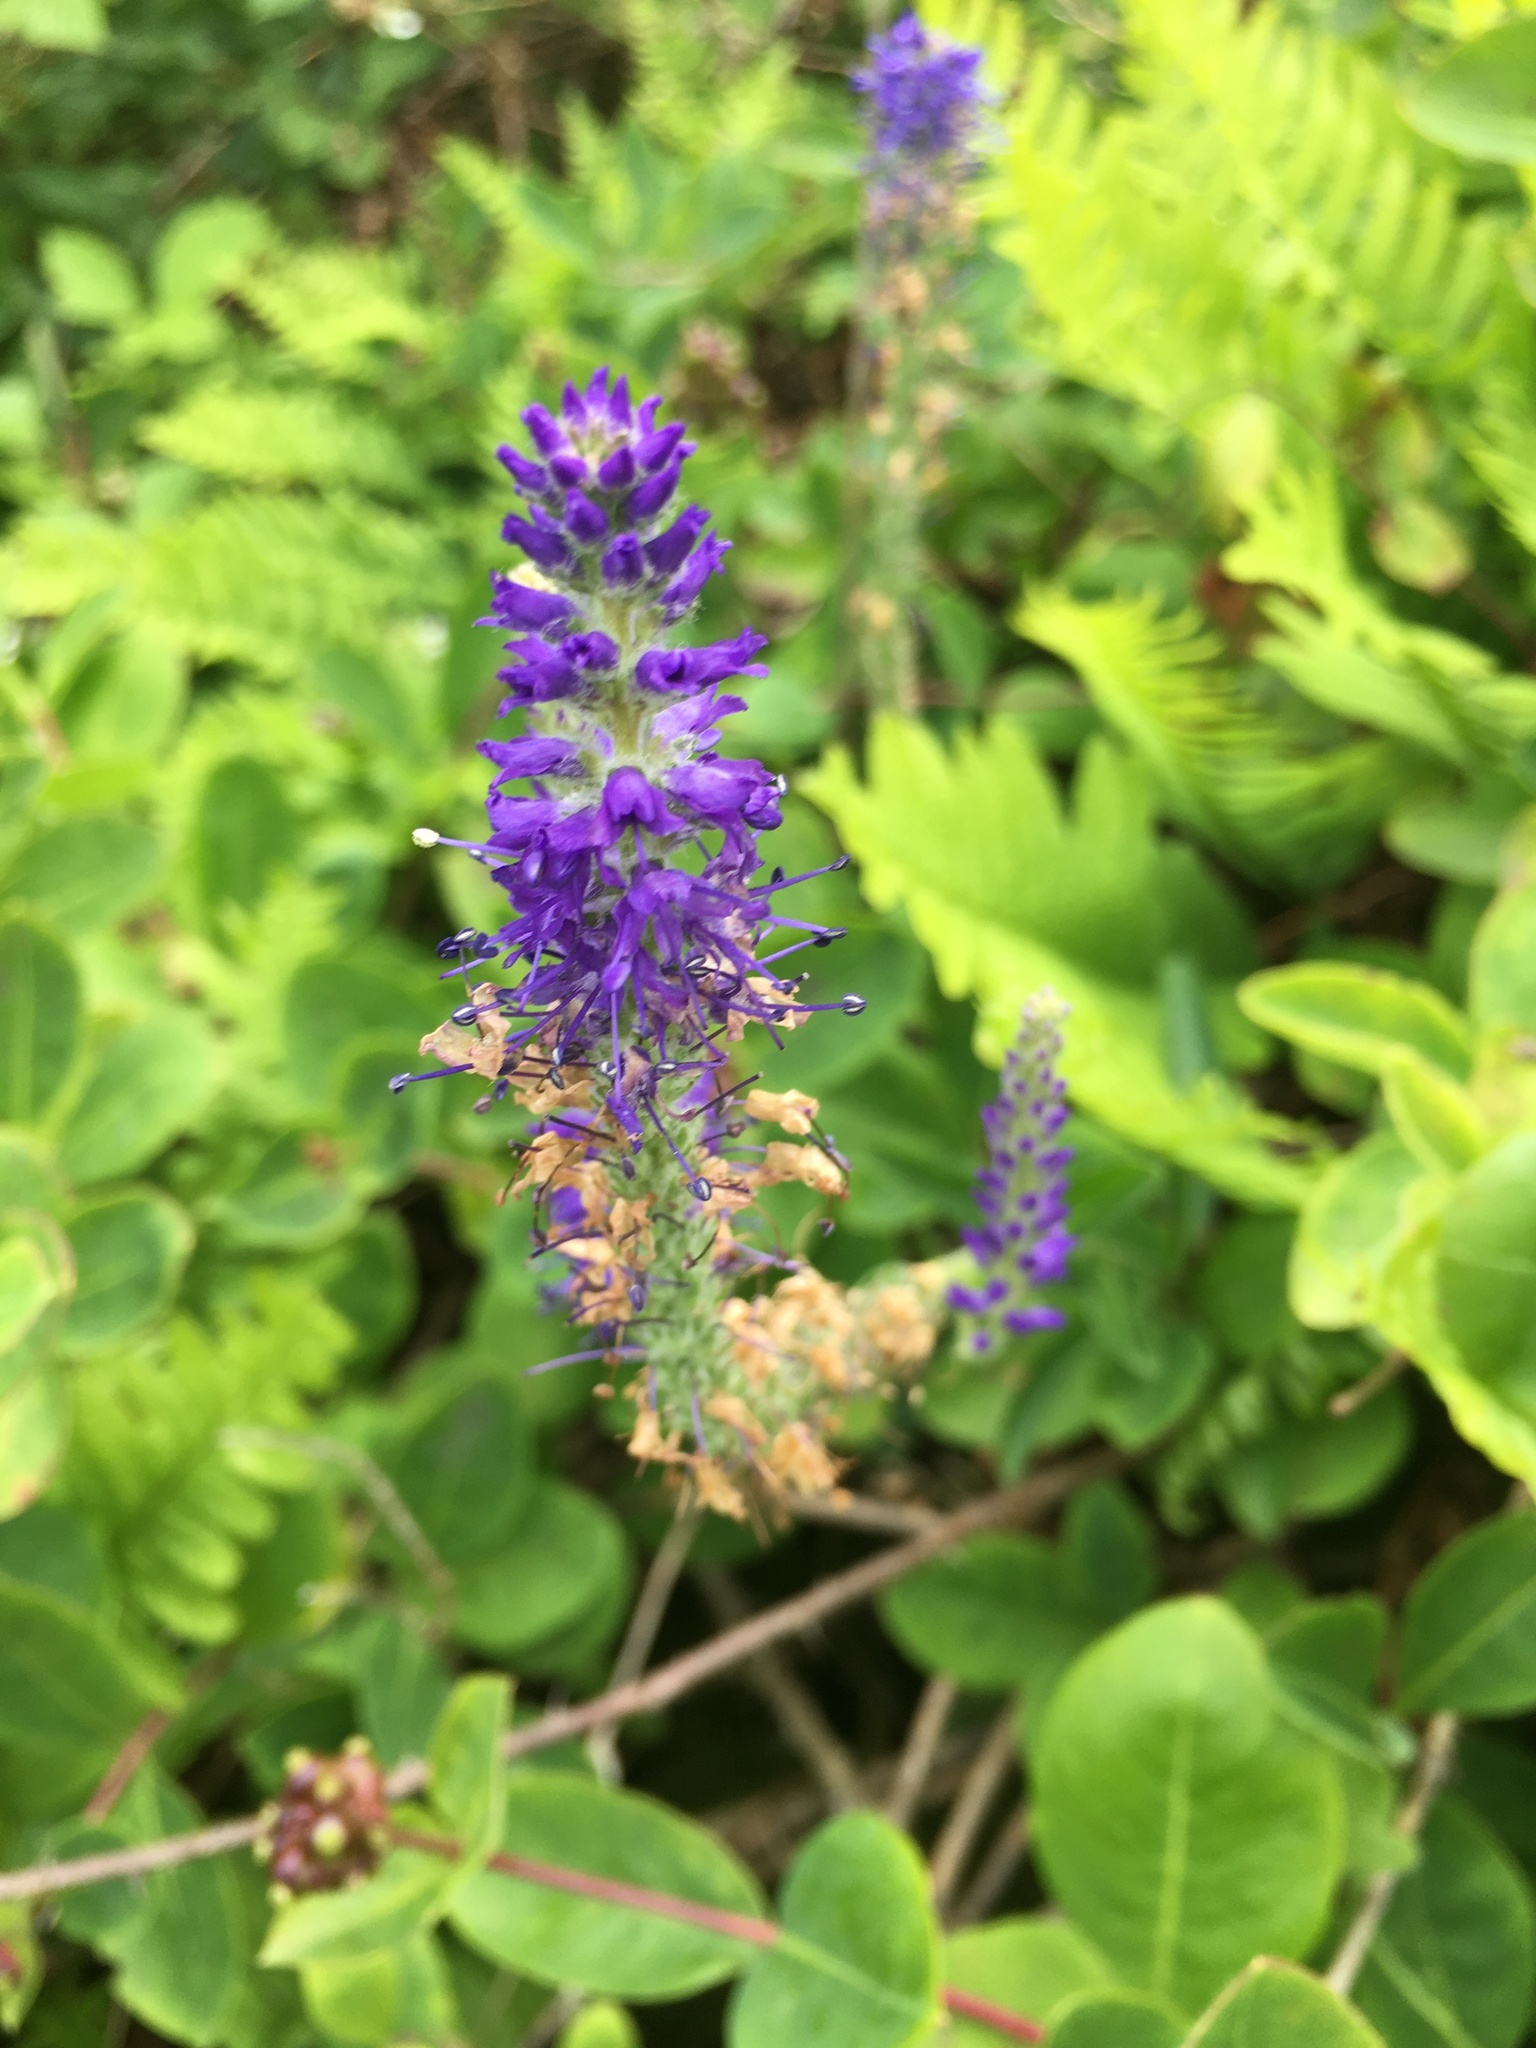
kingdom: Plantae
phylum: Tracheophyta
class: Magnoliopsida
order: Lamiales
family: Plantaginaceae
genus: Veronica
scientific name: Veronica spicata
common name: Spiked speedwell
